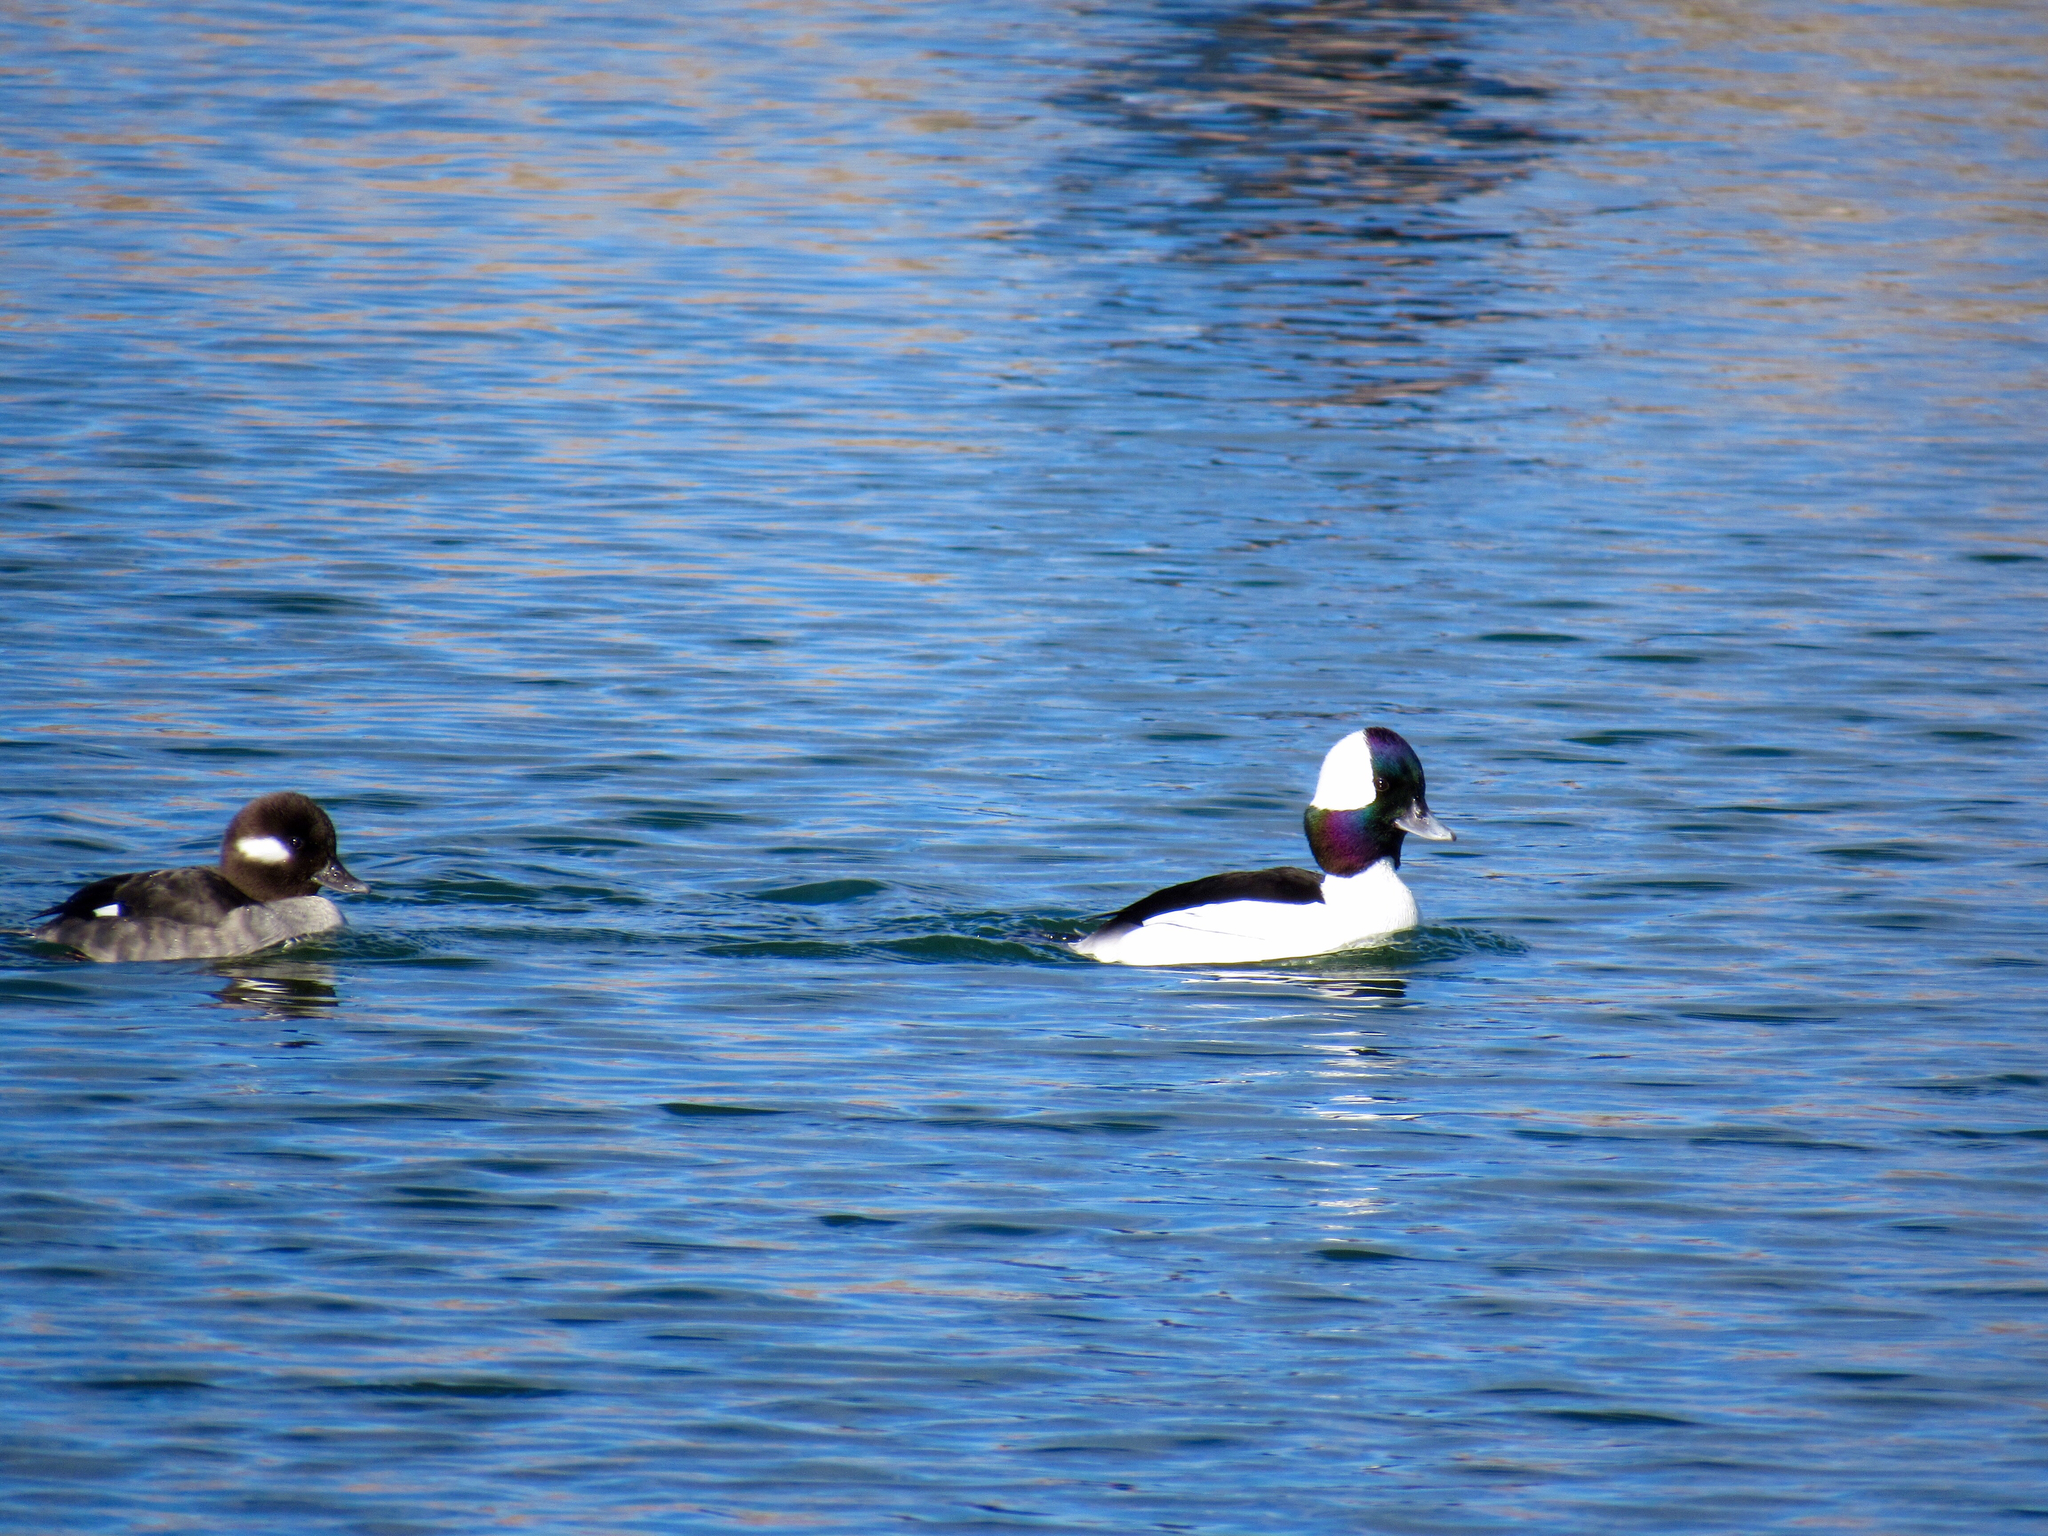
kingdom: Animalia
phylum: Chordata
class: Aves
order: Anseriformes
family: Anatidae
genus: Bucephala
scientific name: Bucephala albeola
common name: Bufflehead
